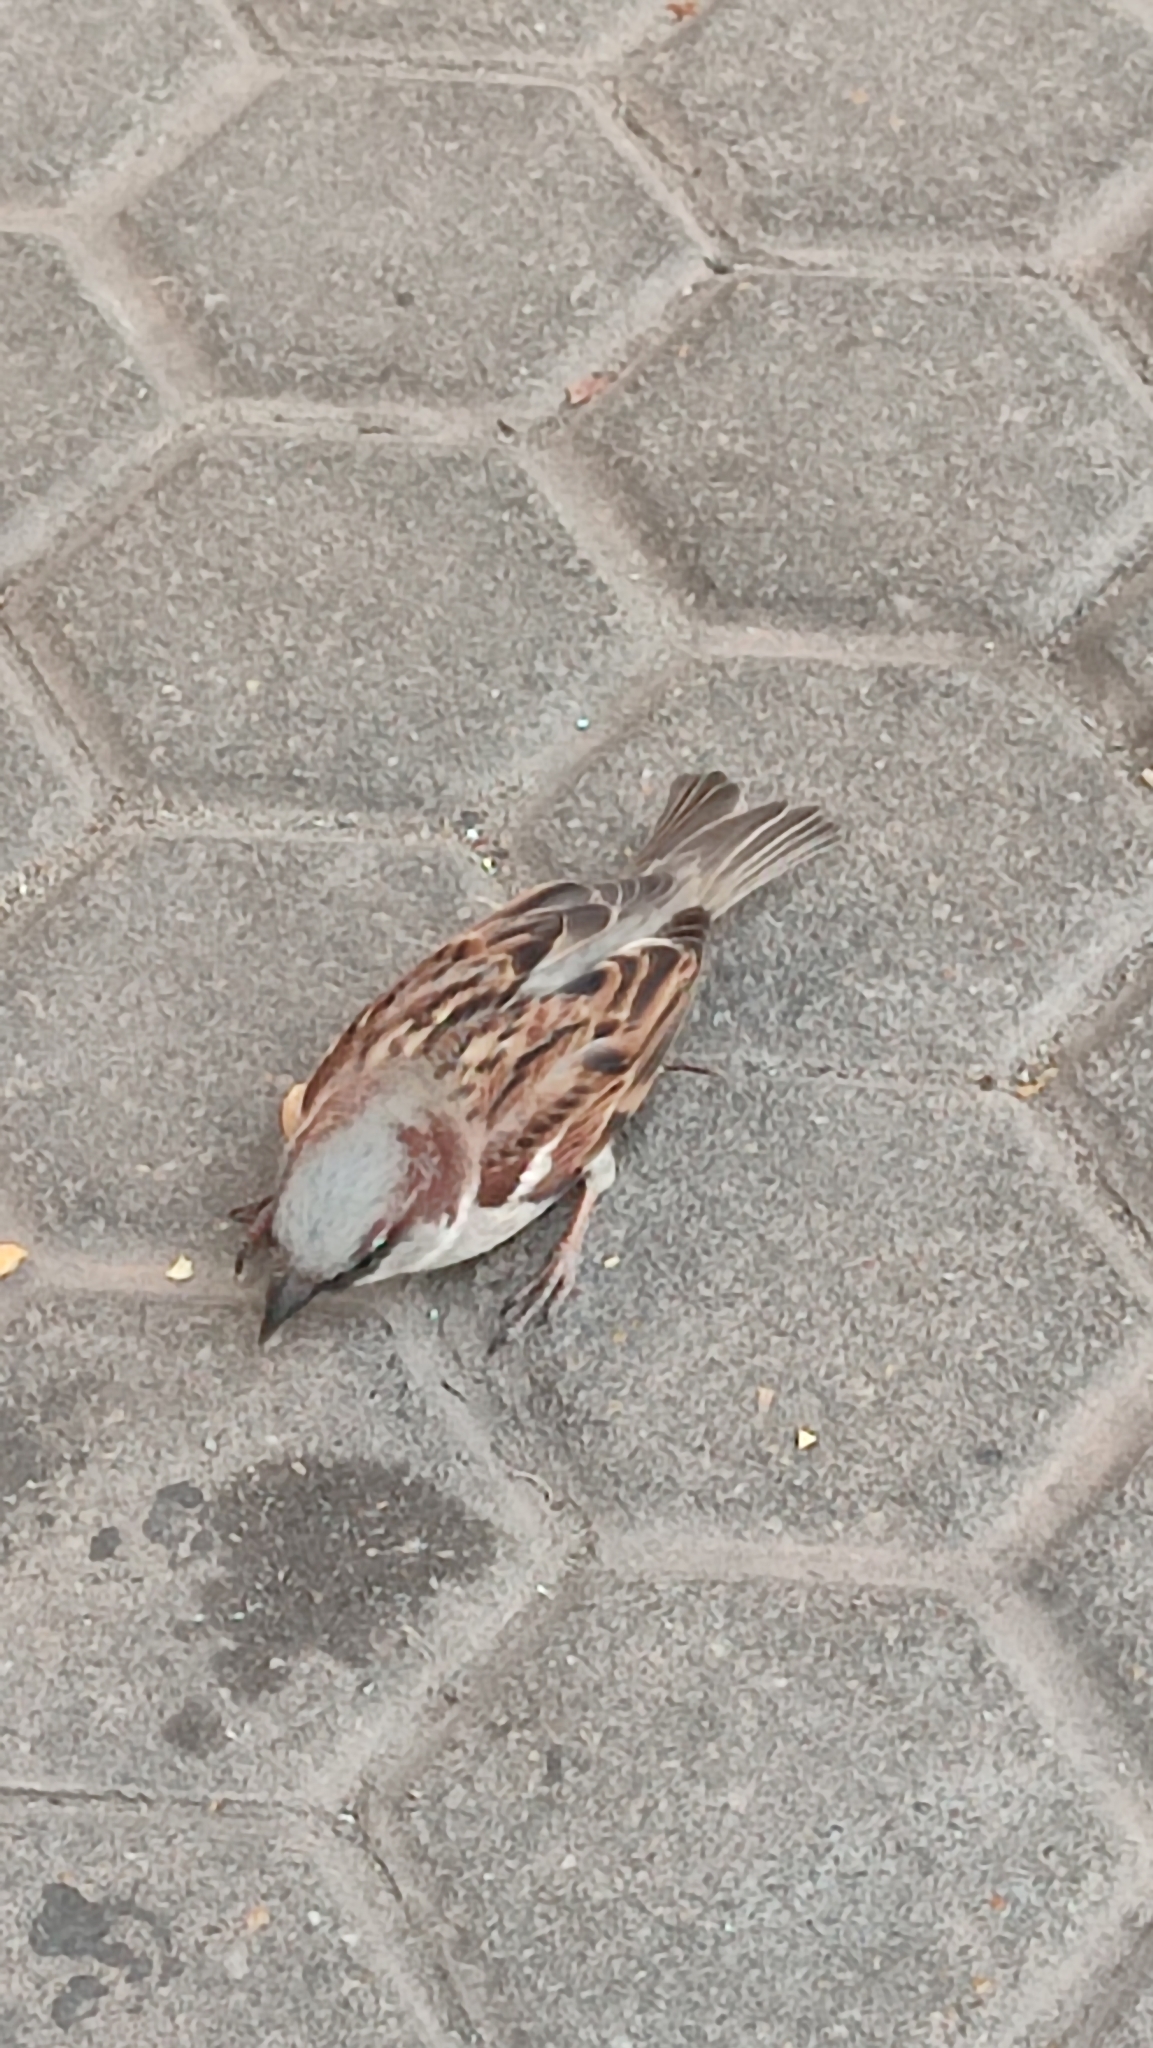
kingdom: Animalia
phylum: Chordata
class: Aves
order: Passeriformes
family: Passeridae
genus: Passer
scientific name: Passer domesticus
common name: House sparrow
